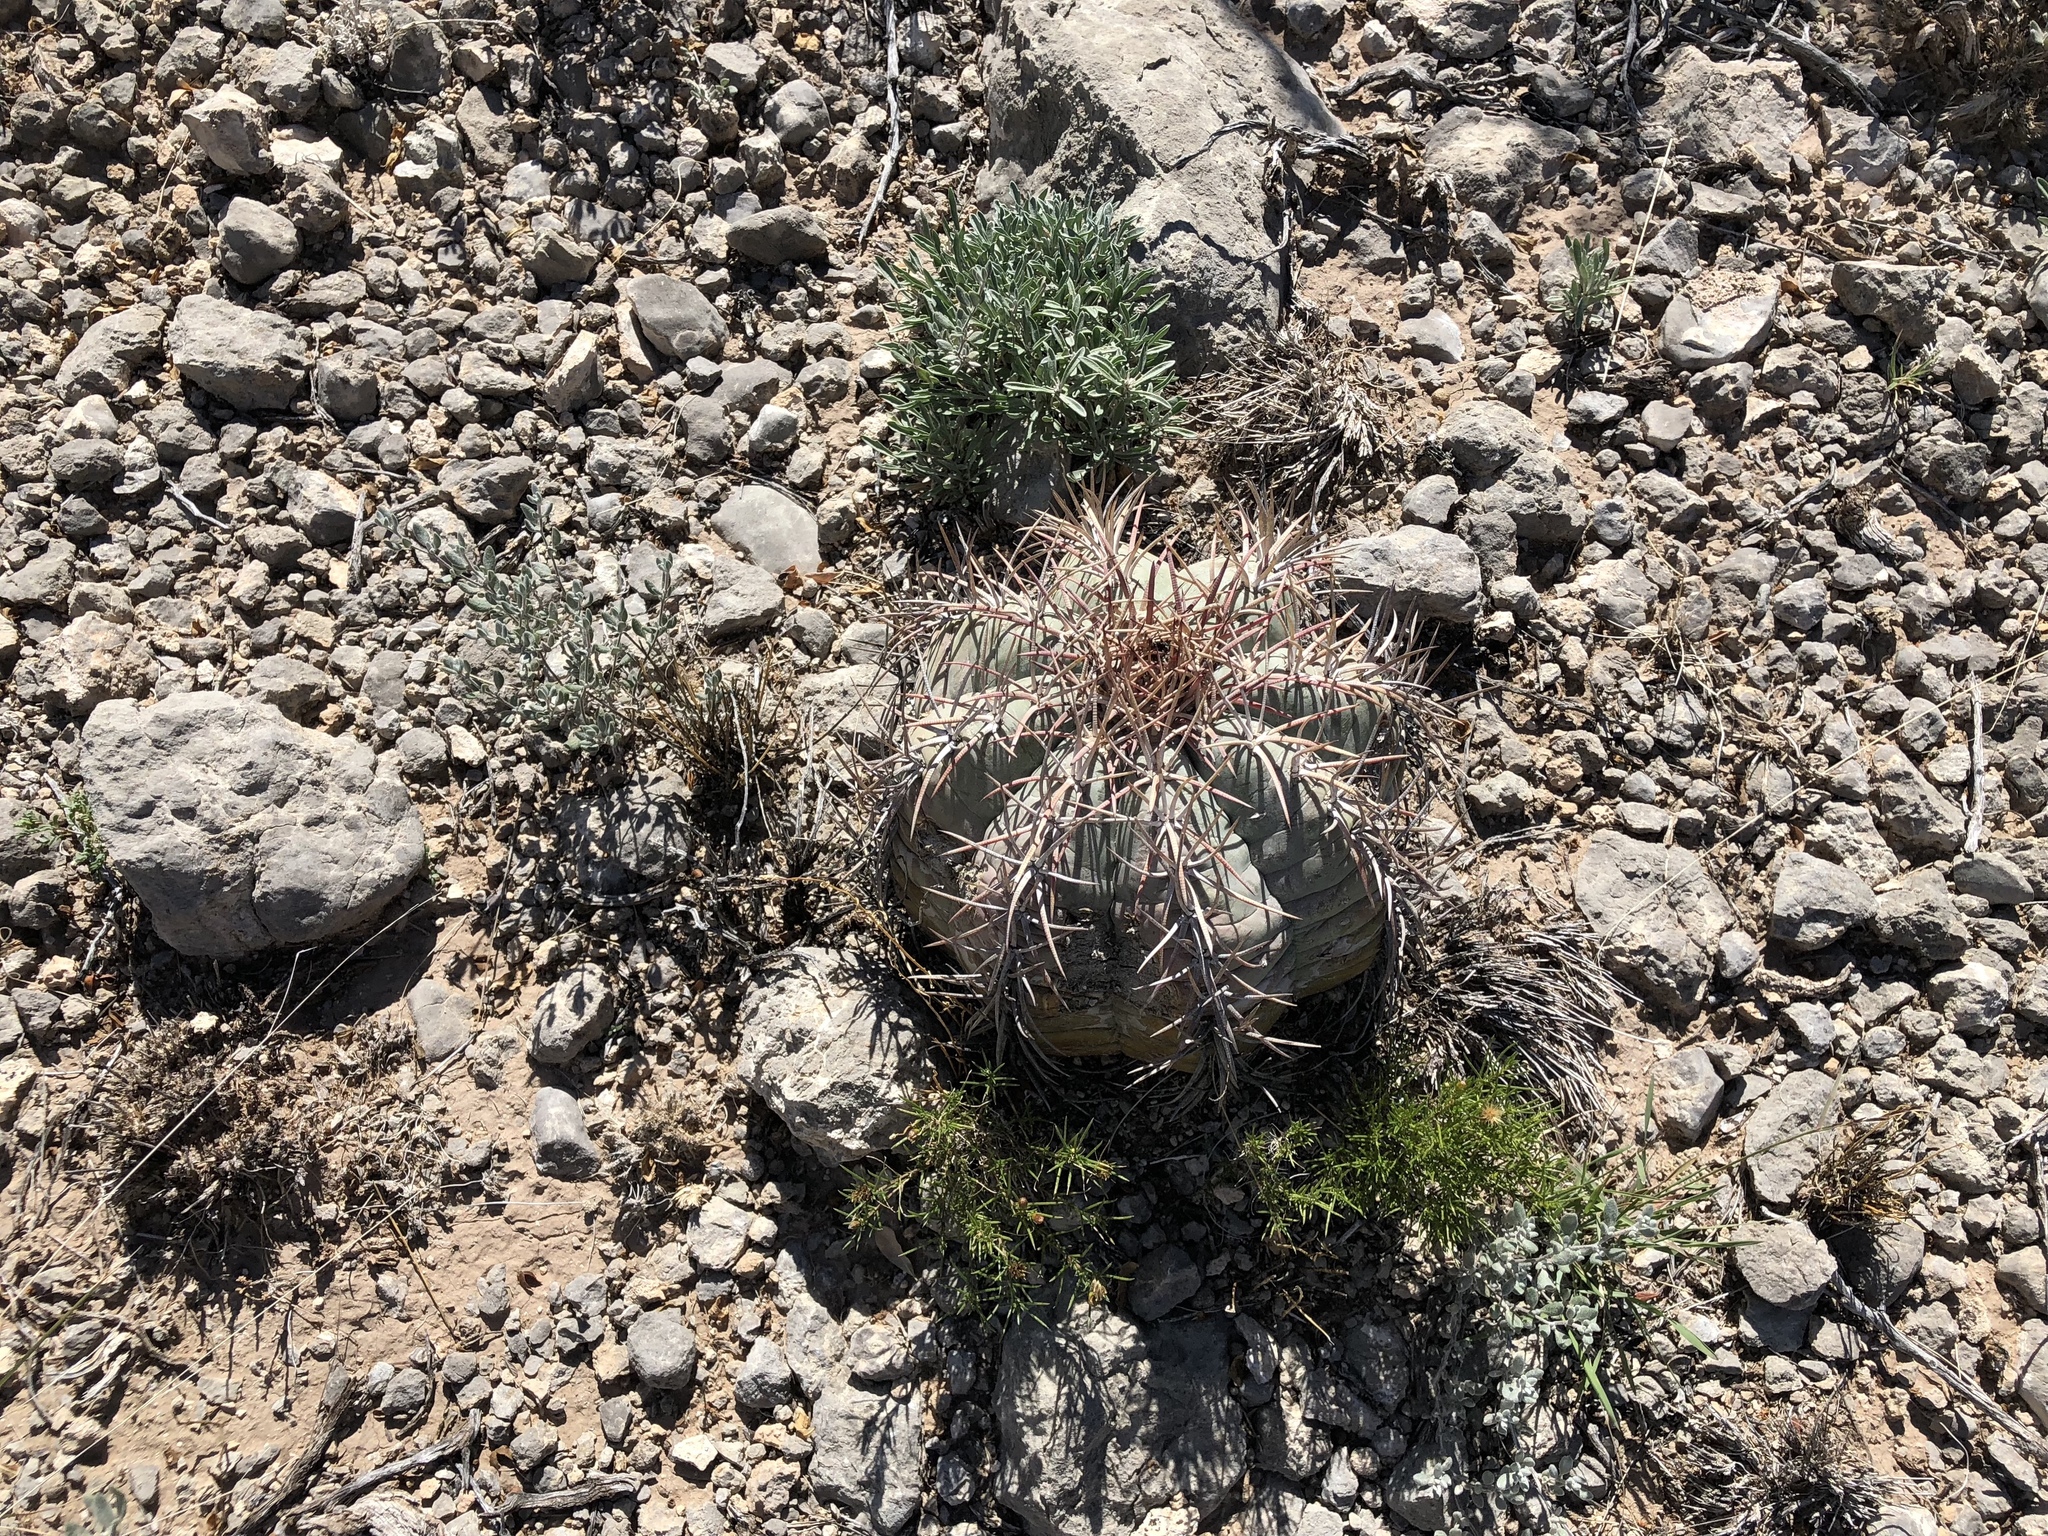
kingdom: Plantae
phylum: Tracheophyta
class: Magnoliopsida
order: Caryophyllales
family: Cactaceae
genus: Echinocactus
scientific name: Echinocactus horizonthalonius
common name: Devilshead
